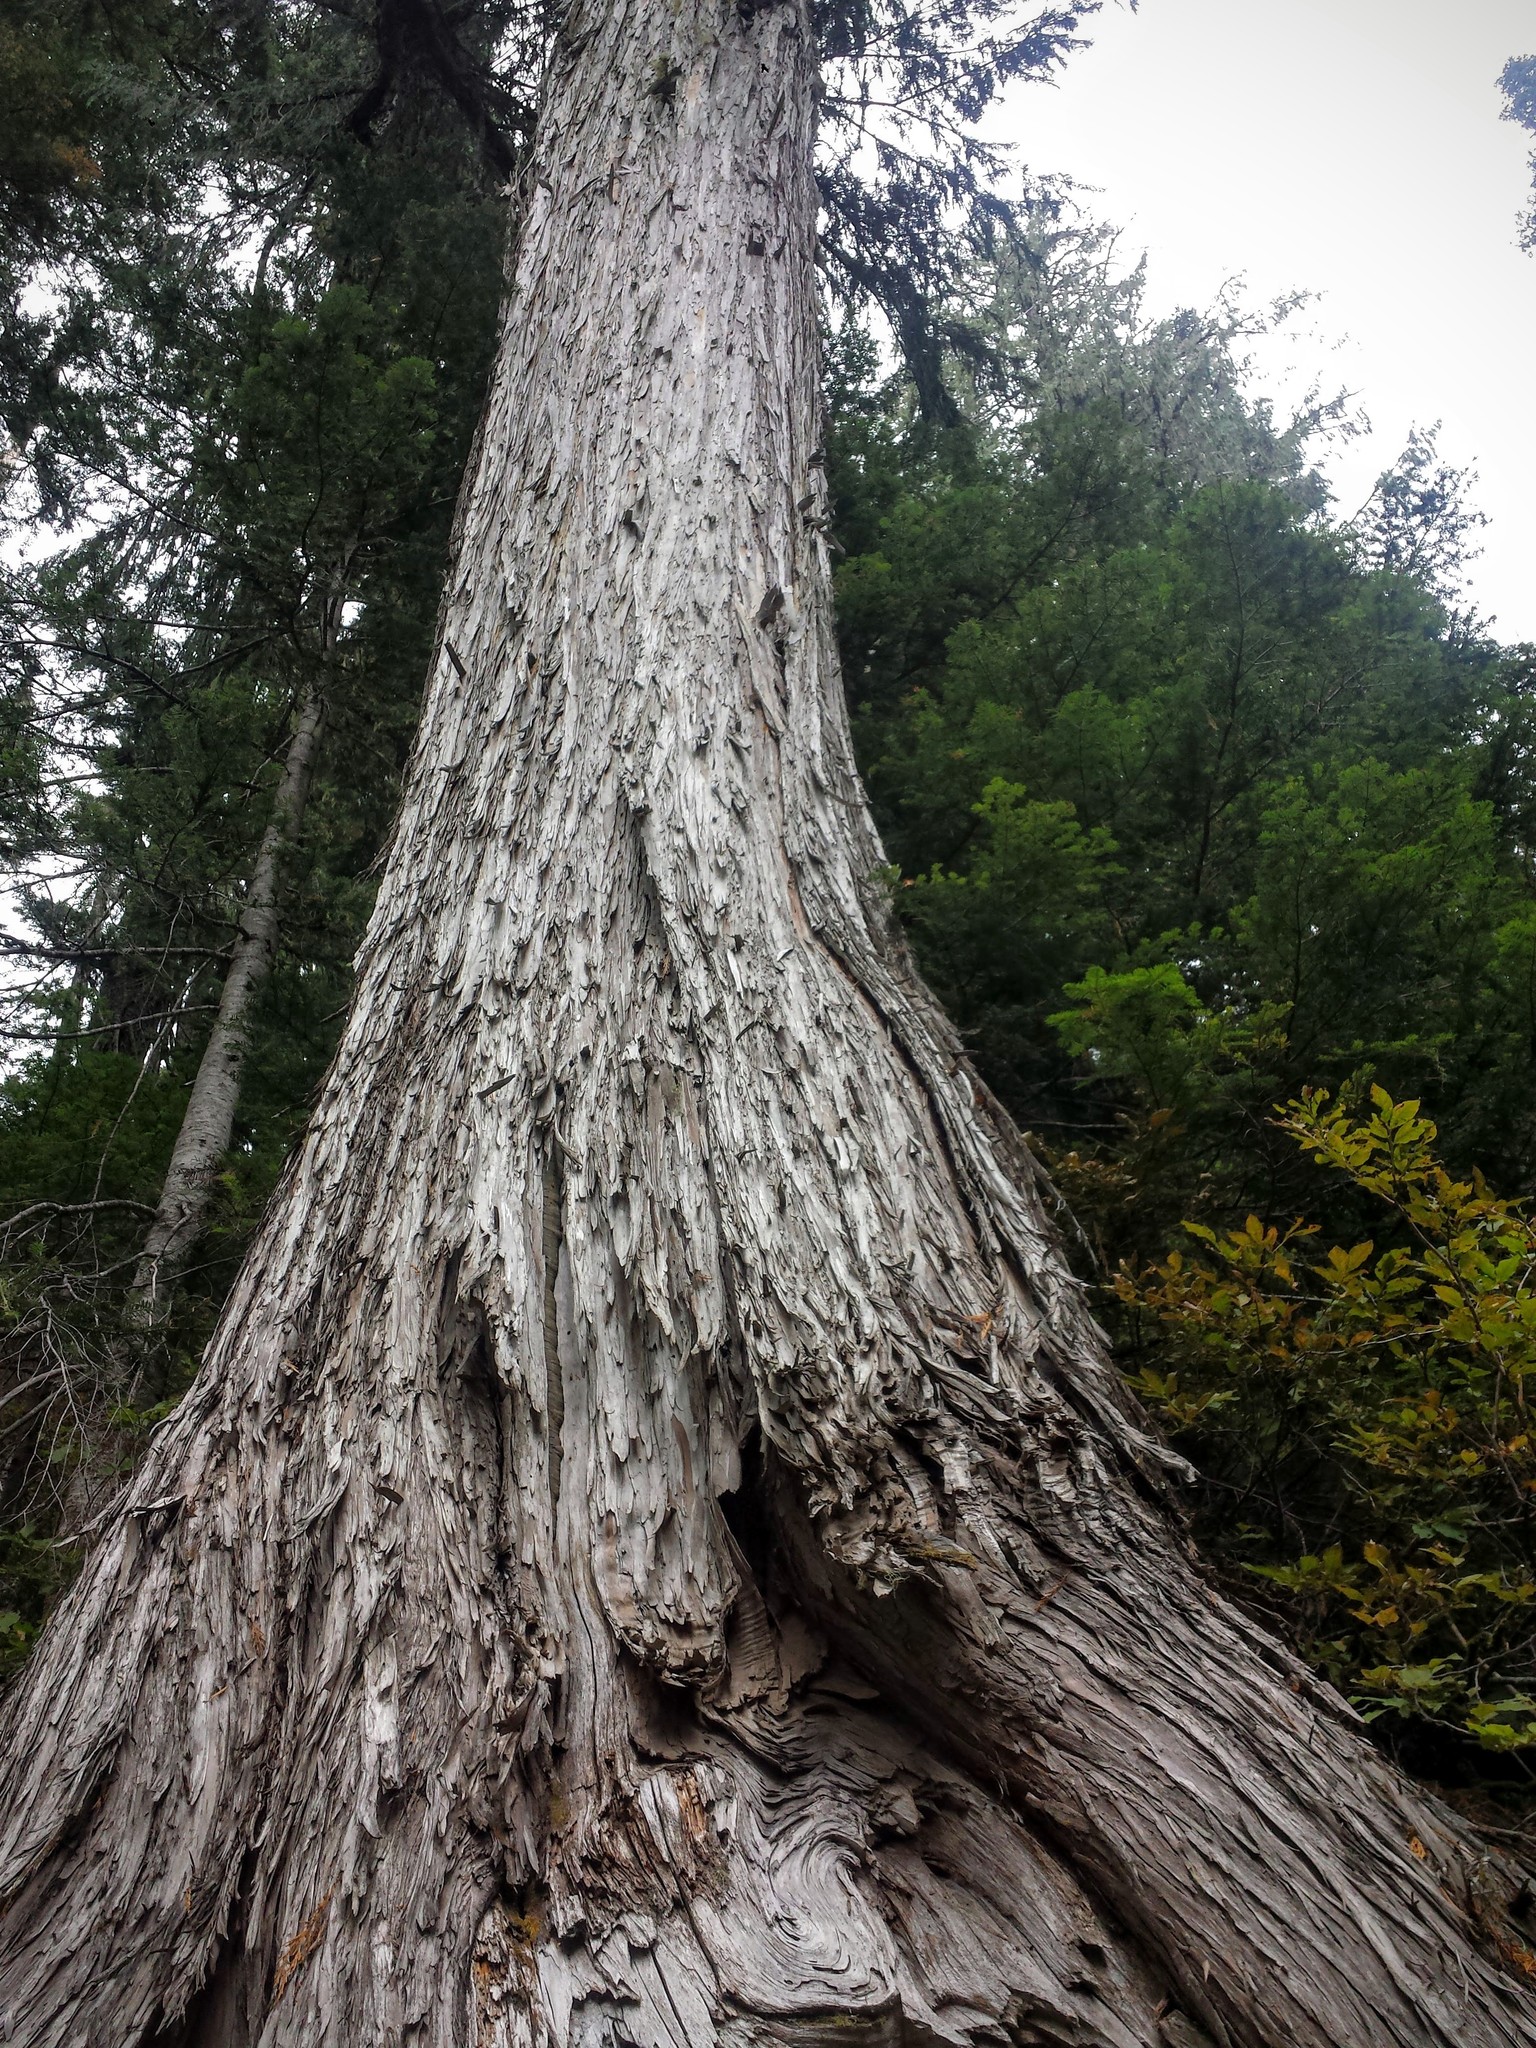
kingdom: Plantae
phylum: Tracheophyta
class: Pinopsida
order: Pinales
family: Cupressaceae
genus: Xanthocyparis
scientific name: Xanthocyparis nootkatensis
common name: Nootka cypress
